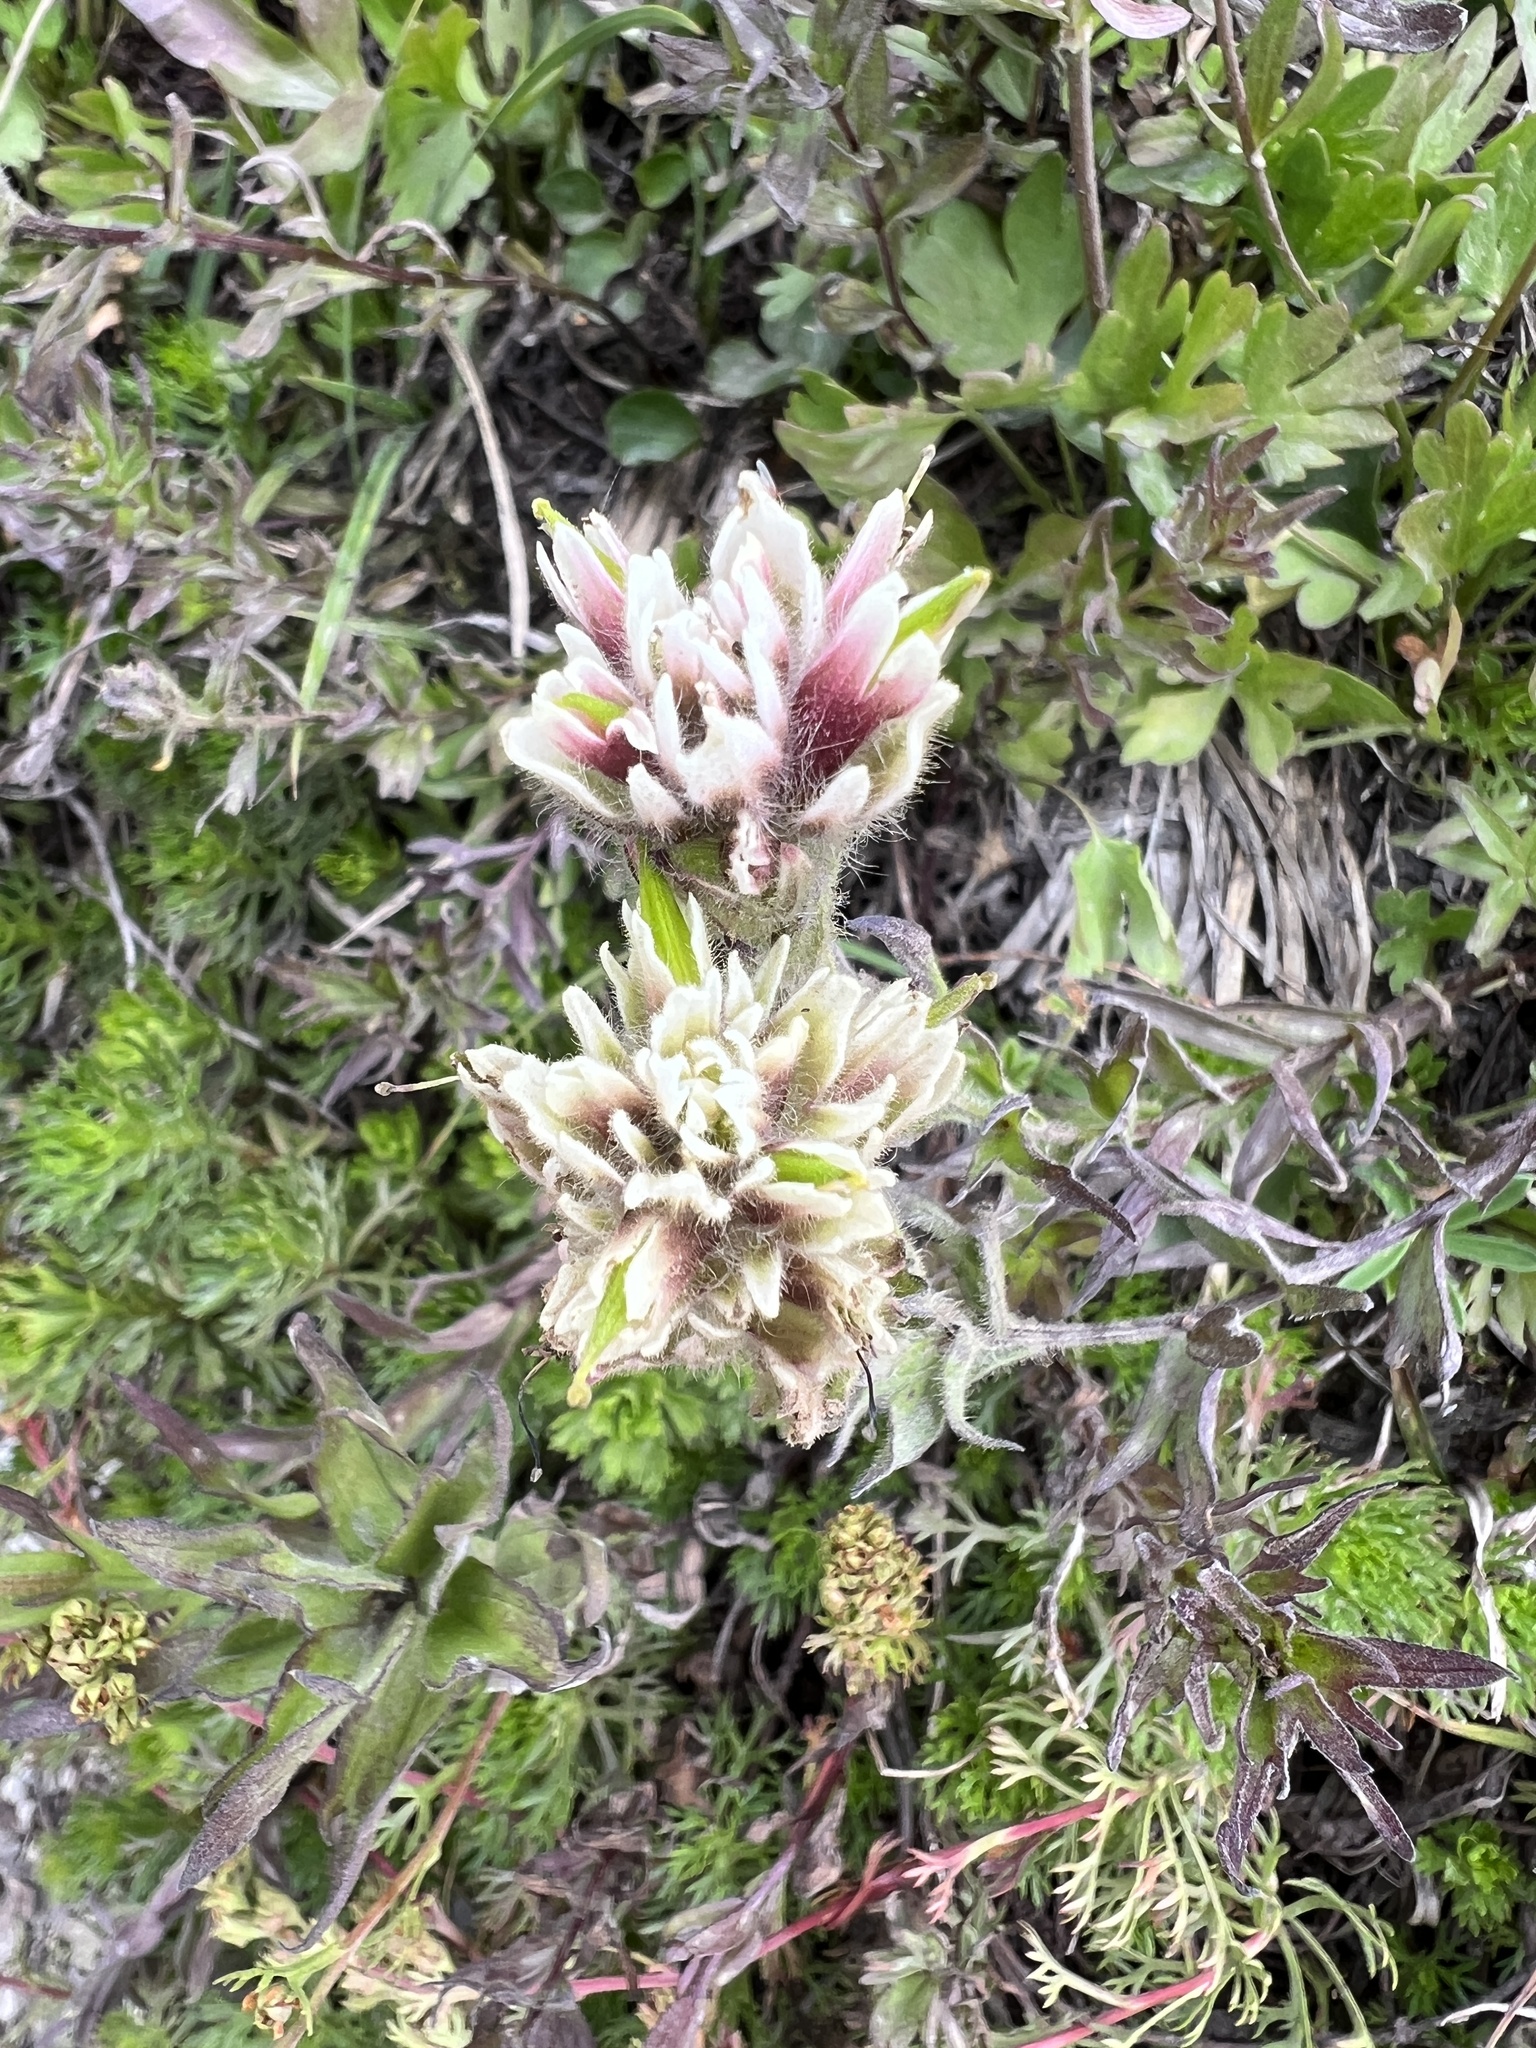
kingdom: Plantae
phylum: Tracheophyta
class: Magnoliopsida
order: Lamiales
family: Orobanchaceae
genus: Castilleja
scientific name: Castilleja parviflora
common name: Mountain paintbrush
